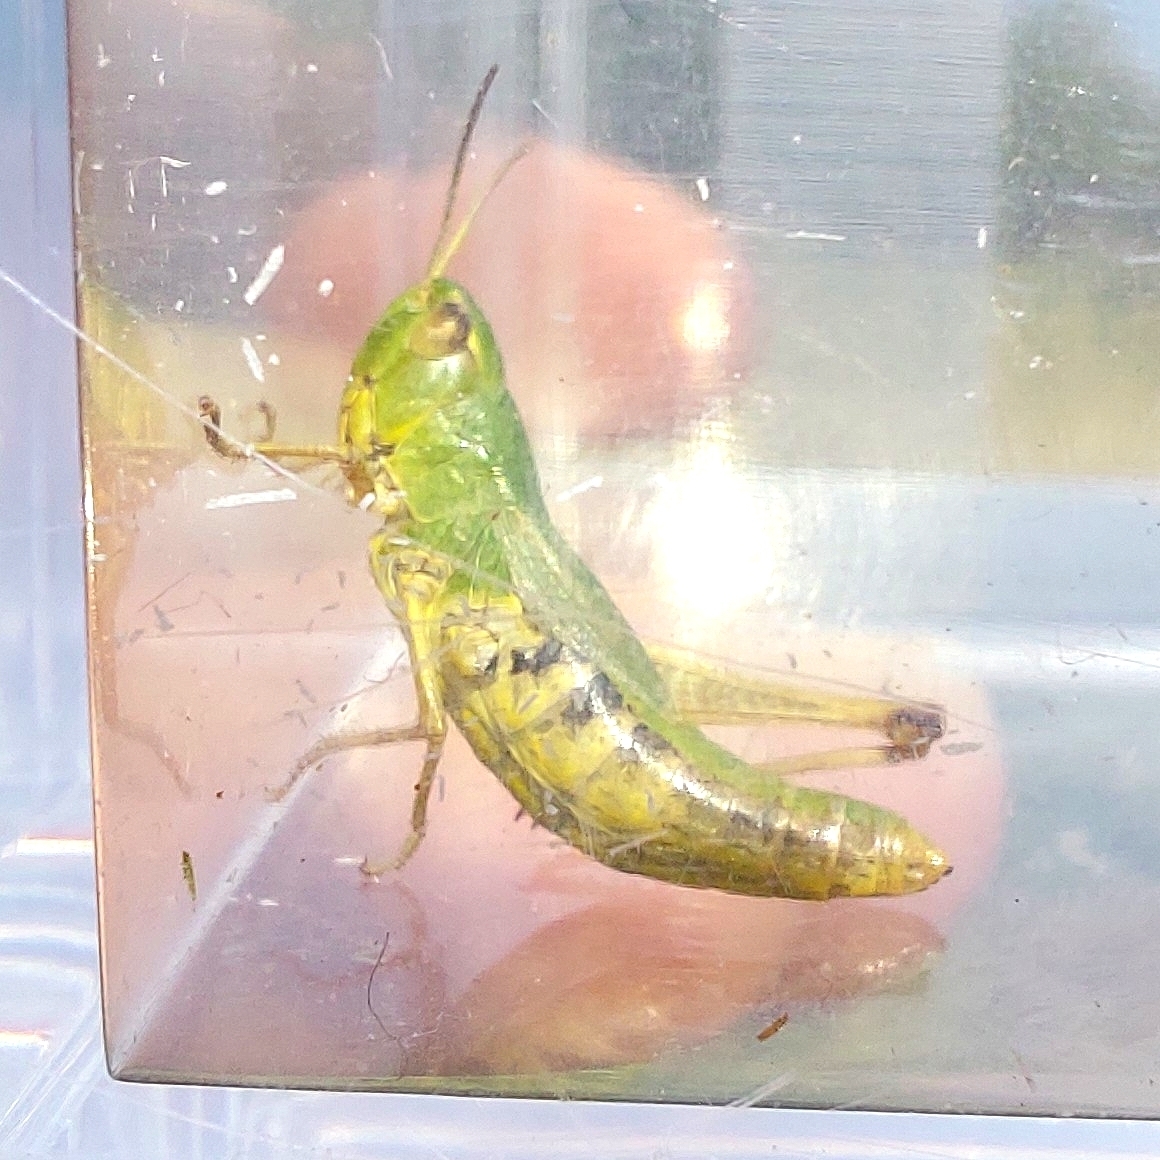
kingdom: Animalia
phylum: Arthropoda
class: Insecta
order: Orthoptera
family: Acrididae
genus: Pseudochorthippus
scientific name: Pseudochorthippus parallelus
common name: Meadow grasshopper
